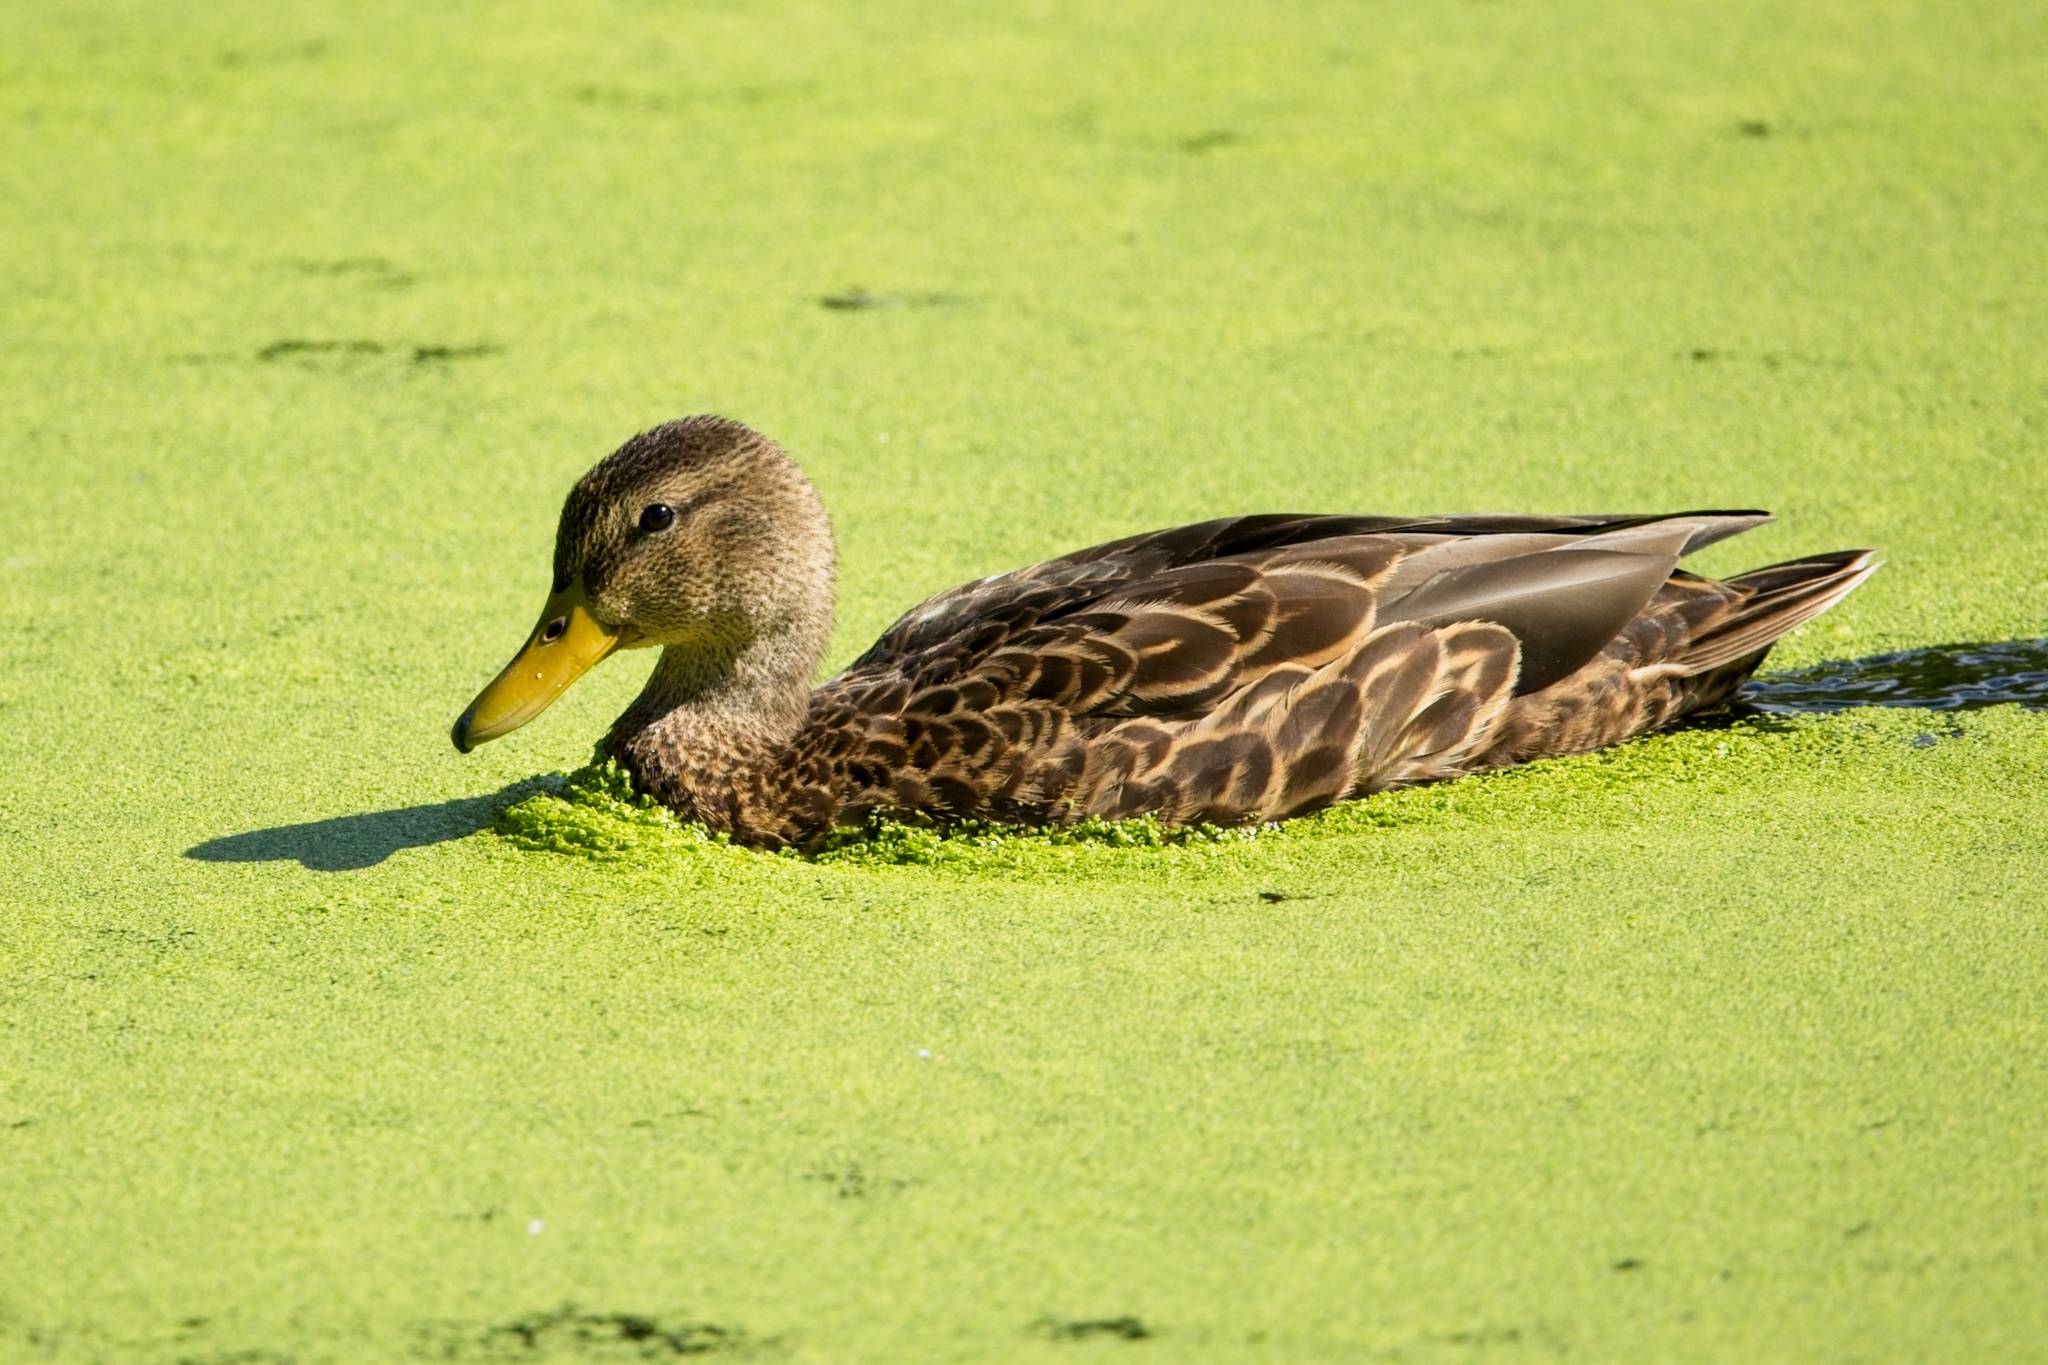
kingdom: Animalia
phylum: Chordata
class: Aves
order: Anseriformes
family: Anatidae
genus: Anas
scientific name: Anas diazi
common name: Mexican duck
